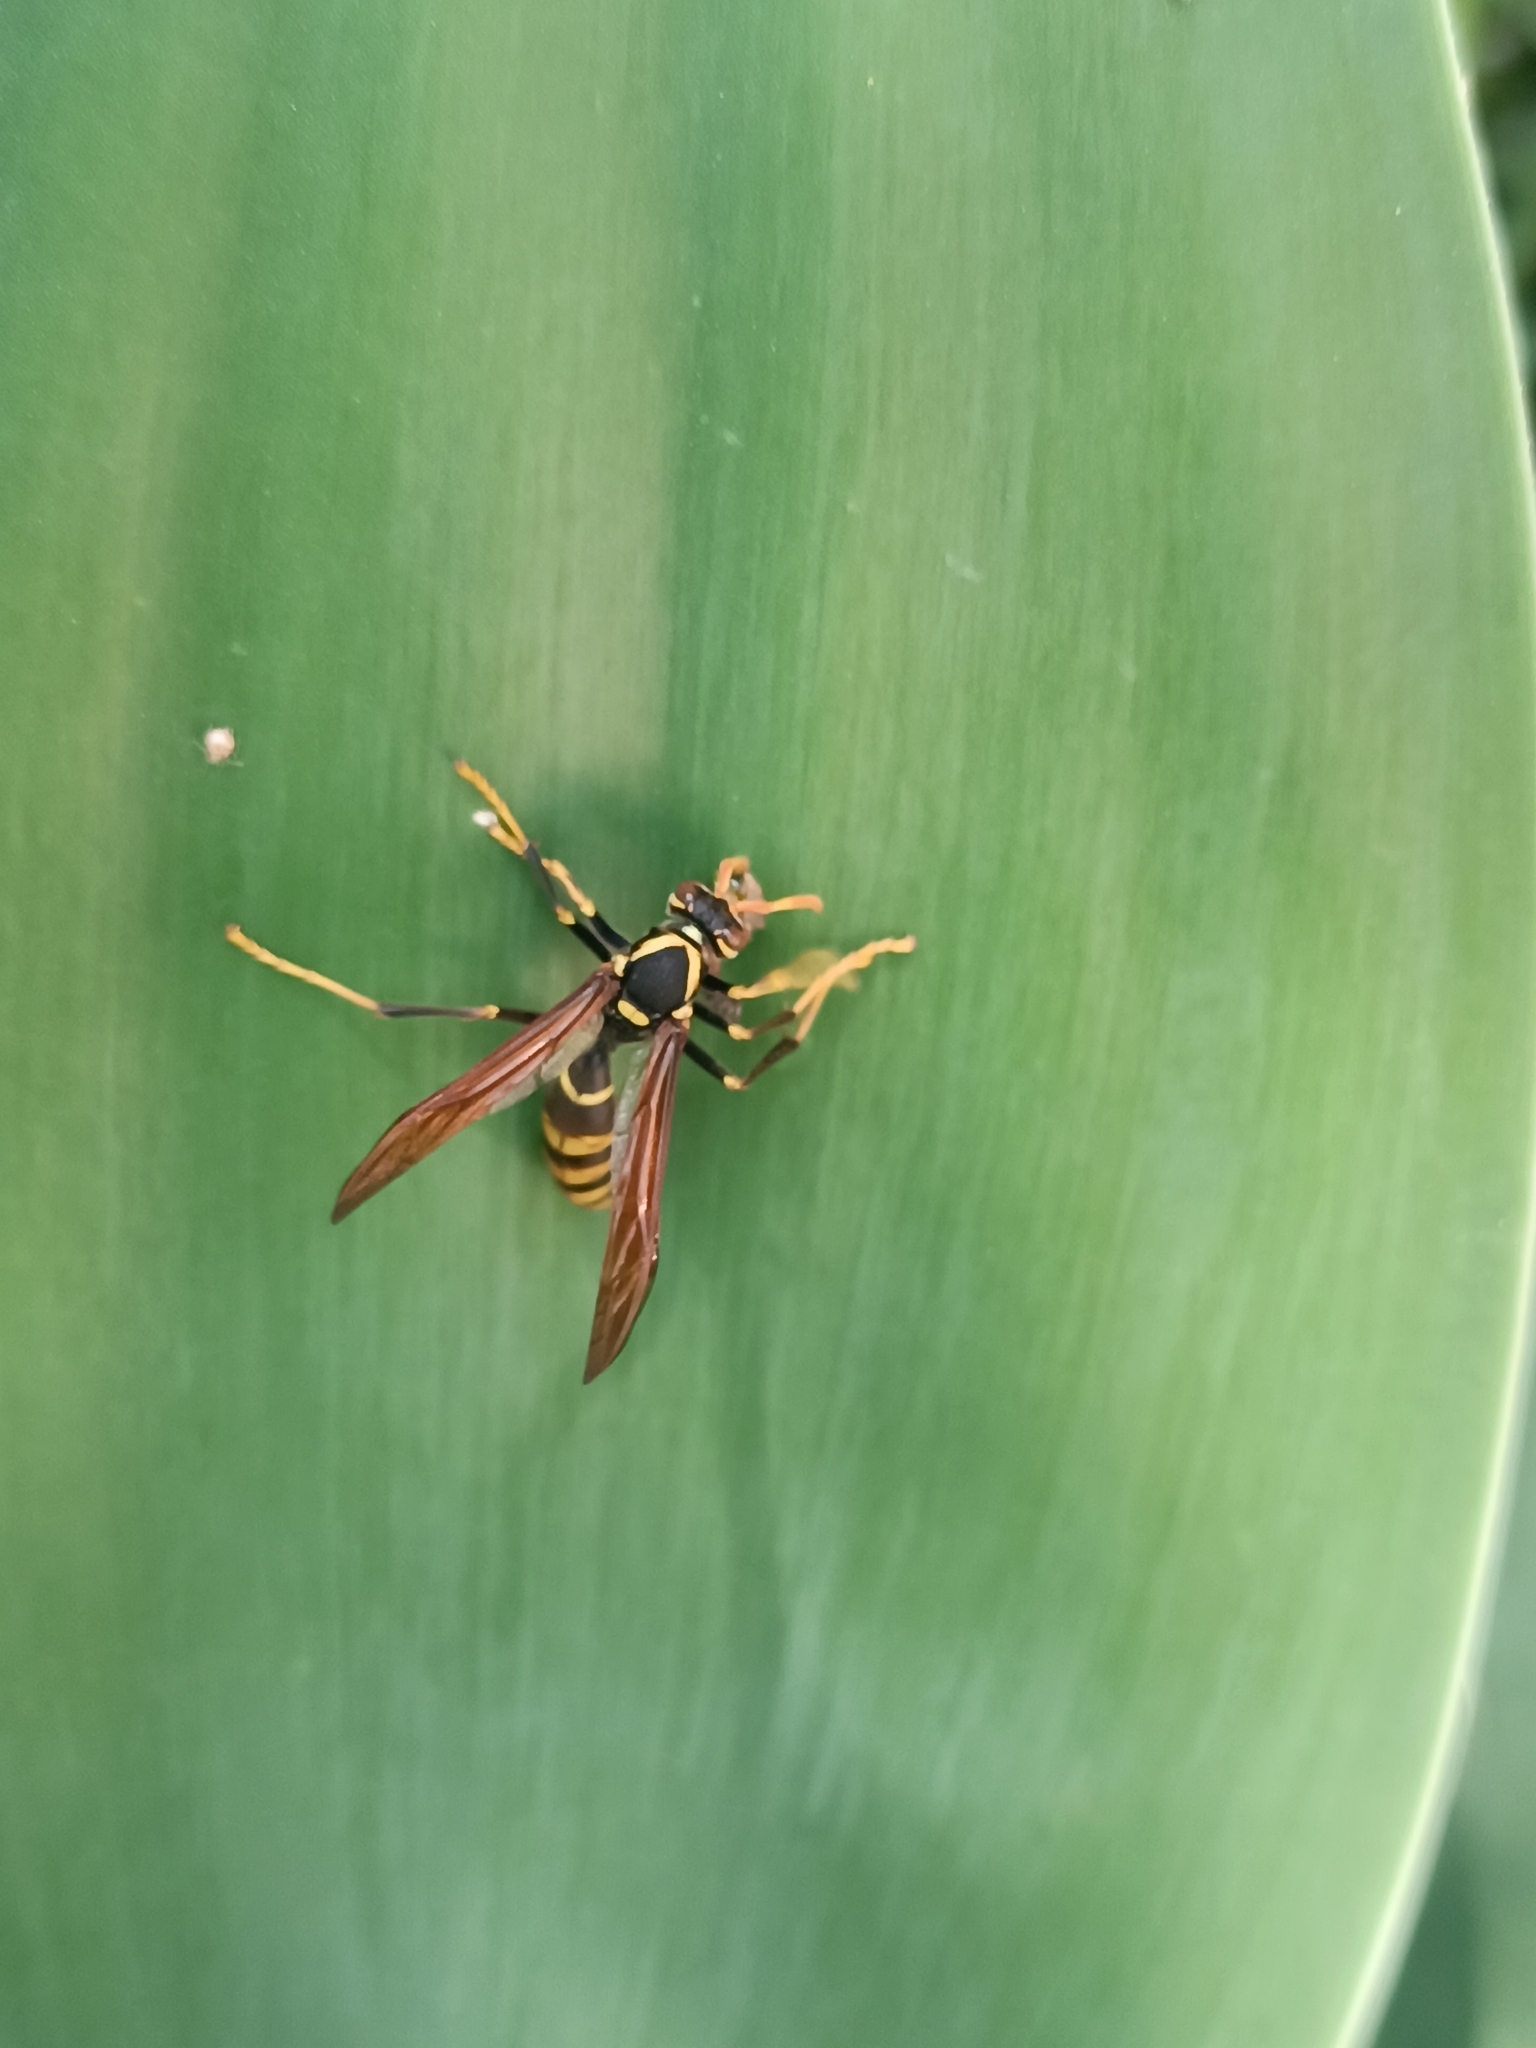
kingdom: Animalia
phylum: Arthropoda
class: Insecta
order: Hymenoptera
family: Eumenidae
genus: Polistes
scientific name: Polistes xanthogaster
